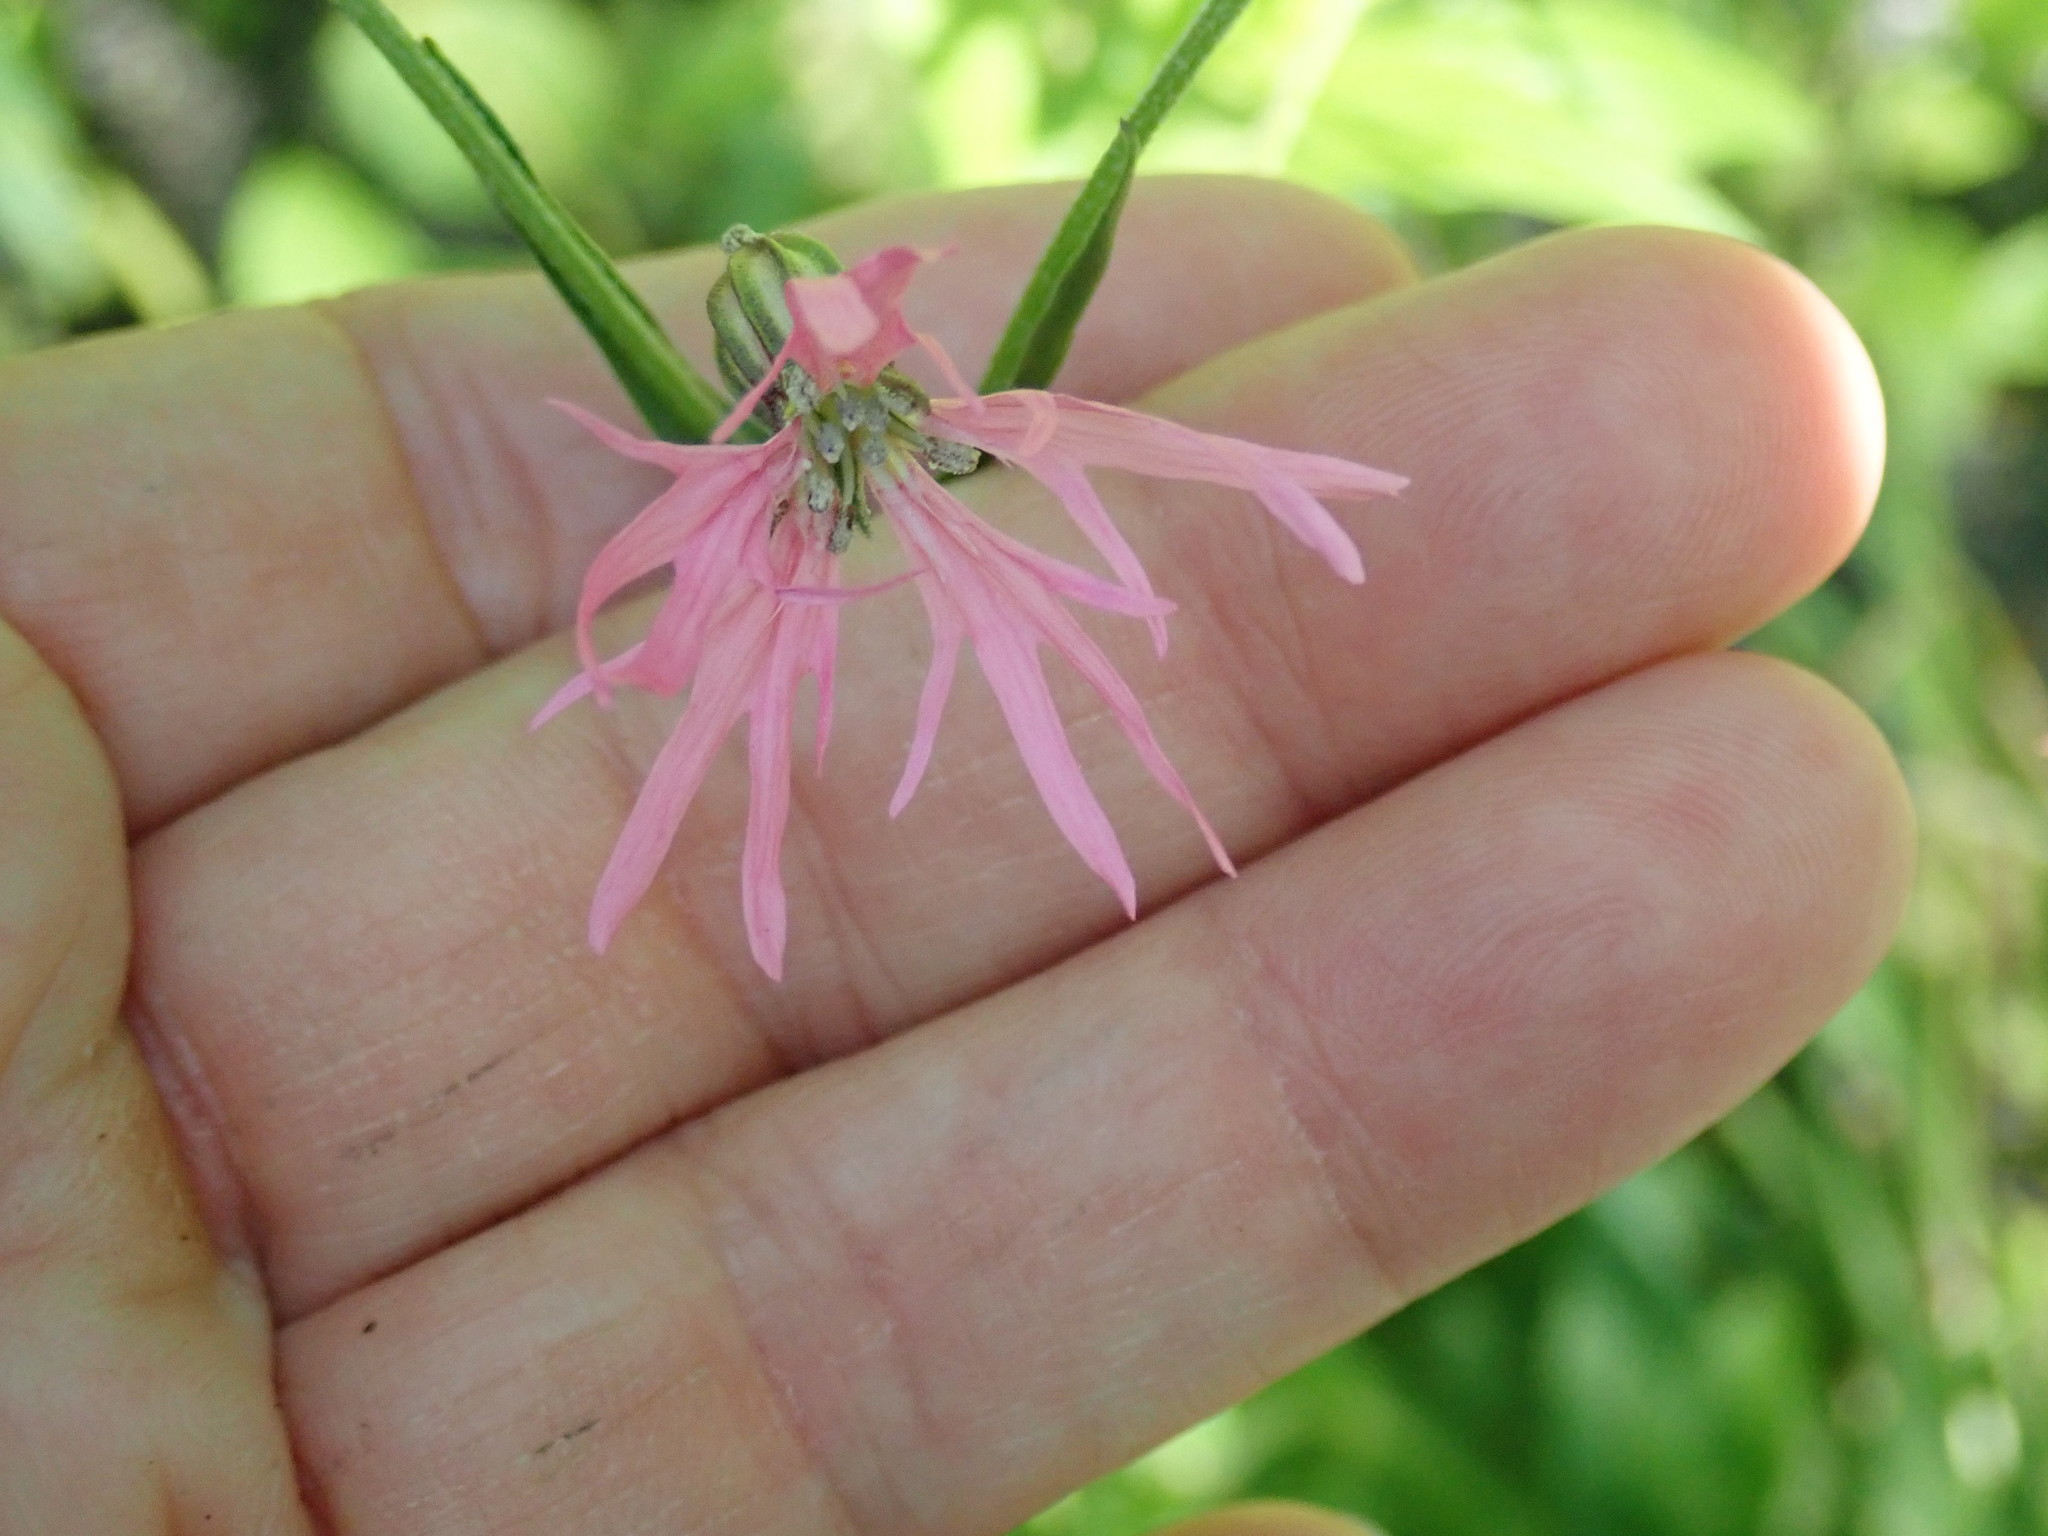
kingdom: Plantae
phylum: Tracheophyta
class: Magnoliopsida
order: Caryophyllales
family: Caryophyllaceae
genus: Silene
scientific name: Silene flos-cuculi
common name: Ragged-robin
